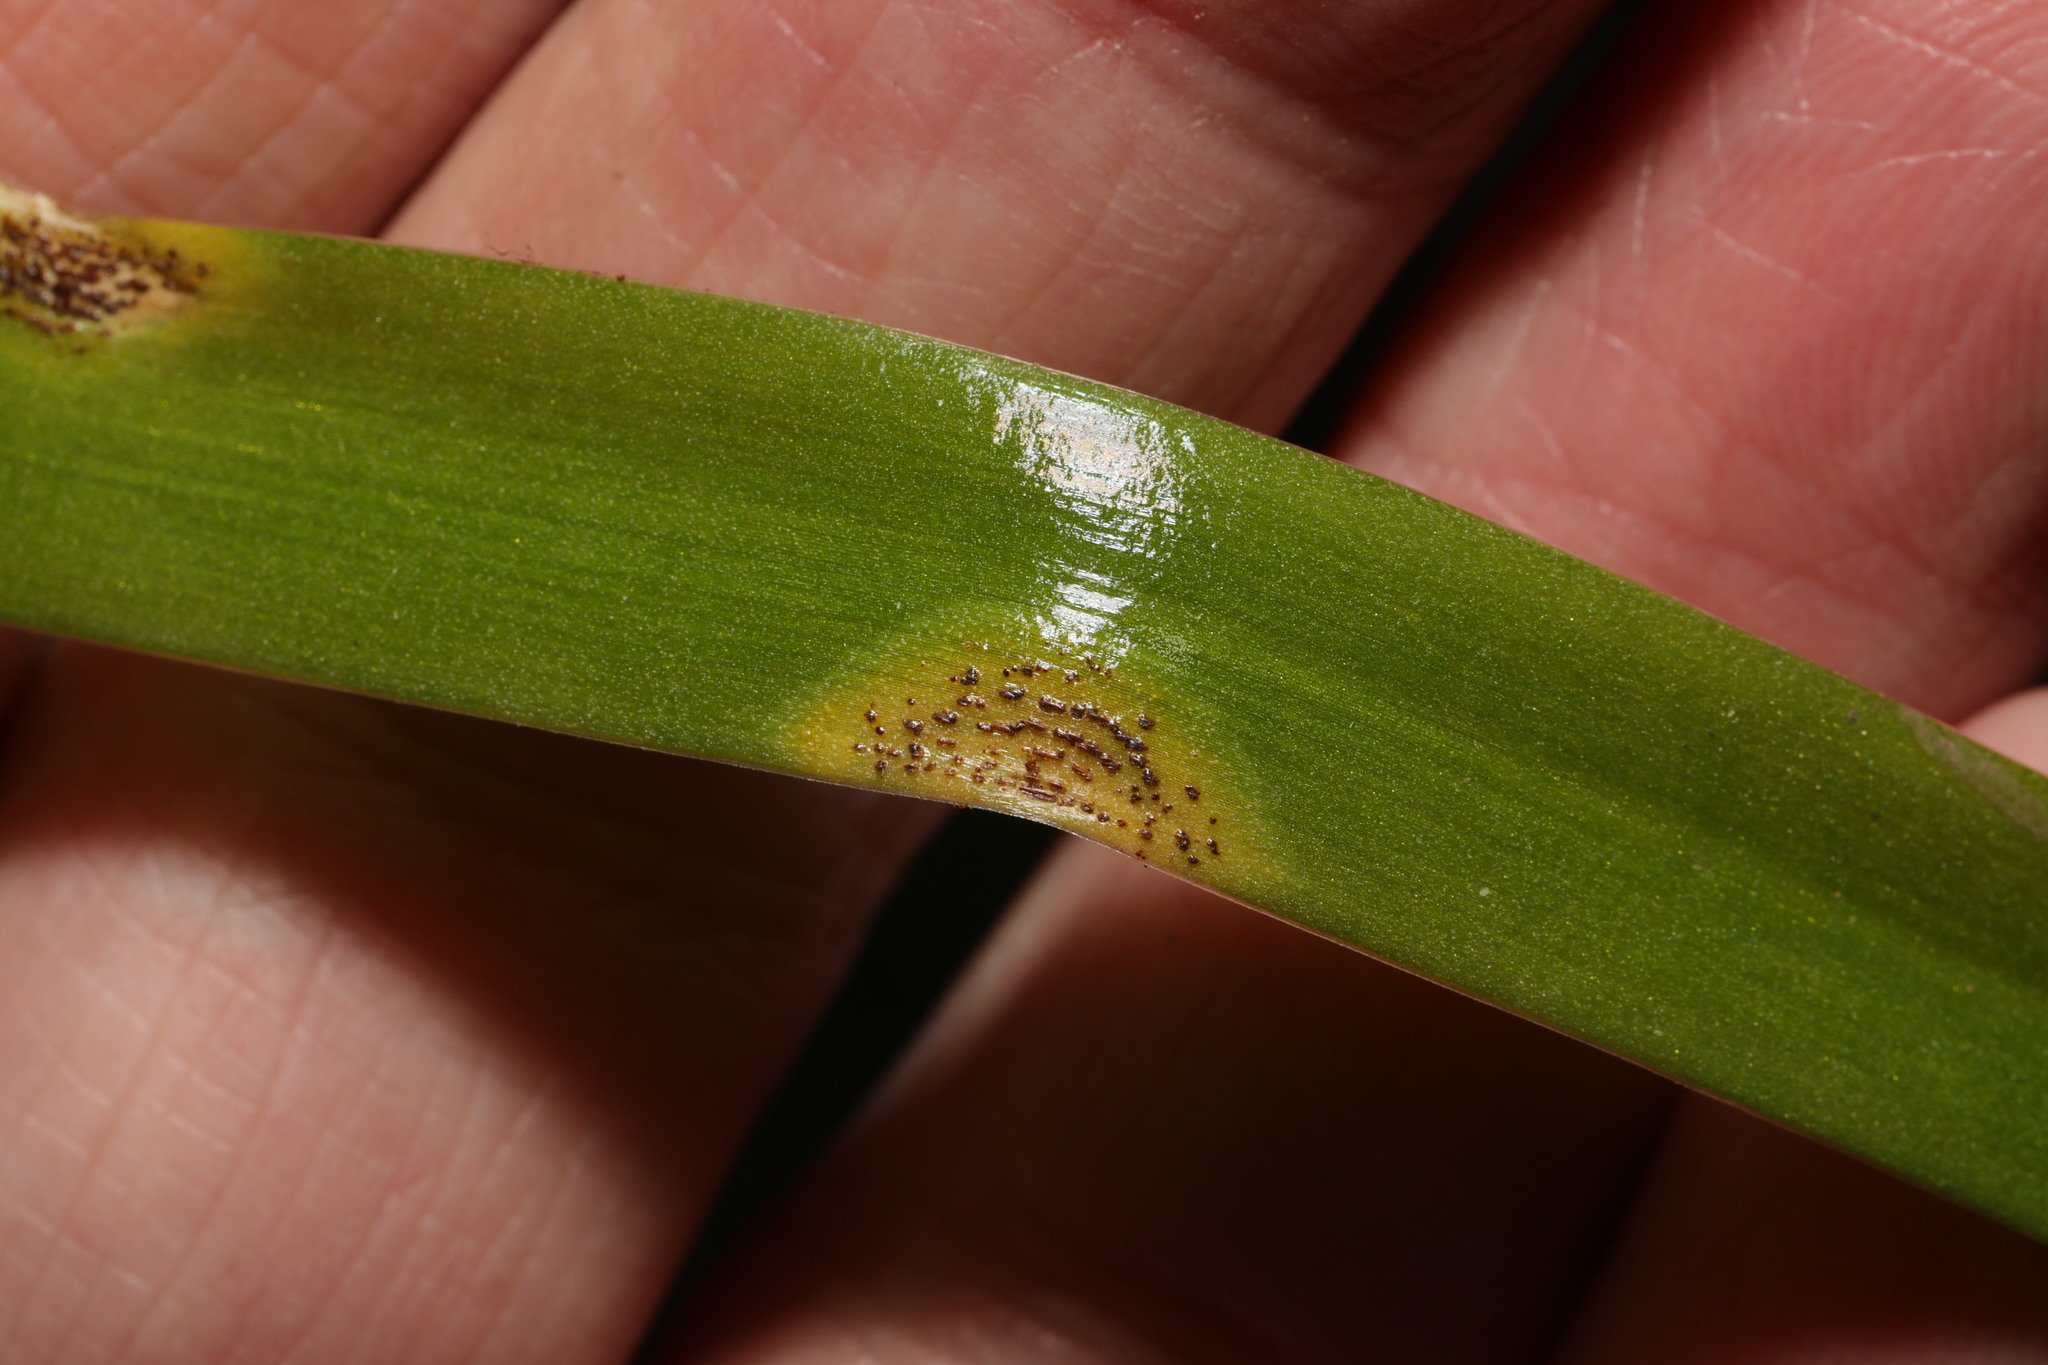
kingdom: Fungi
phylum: Basidiomycota
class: Pucciniomycetes
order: Pucciniales
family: Pucciniaceae
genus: Uromyces
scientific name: Uromyces hyacinthi
